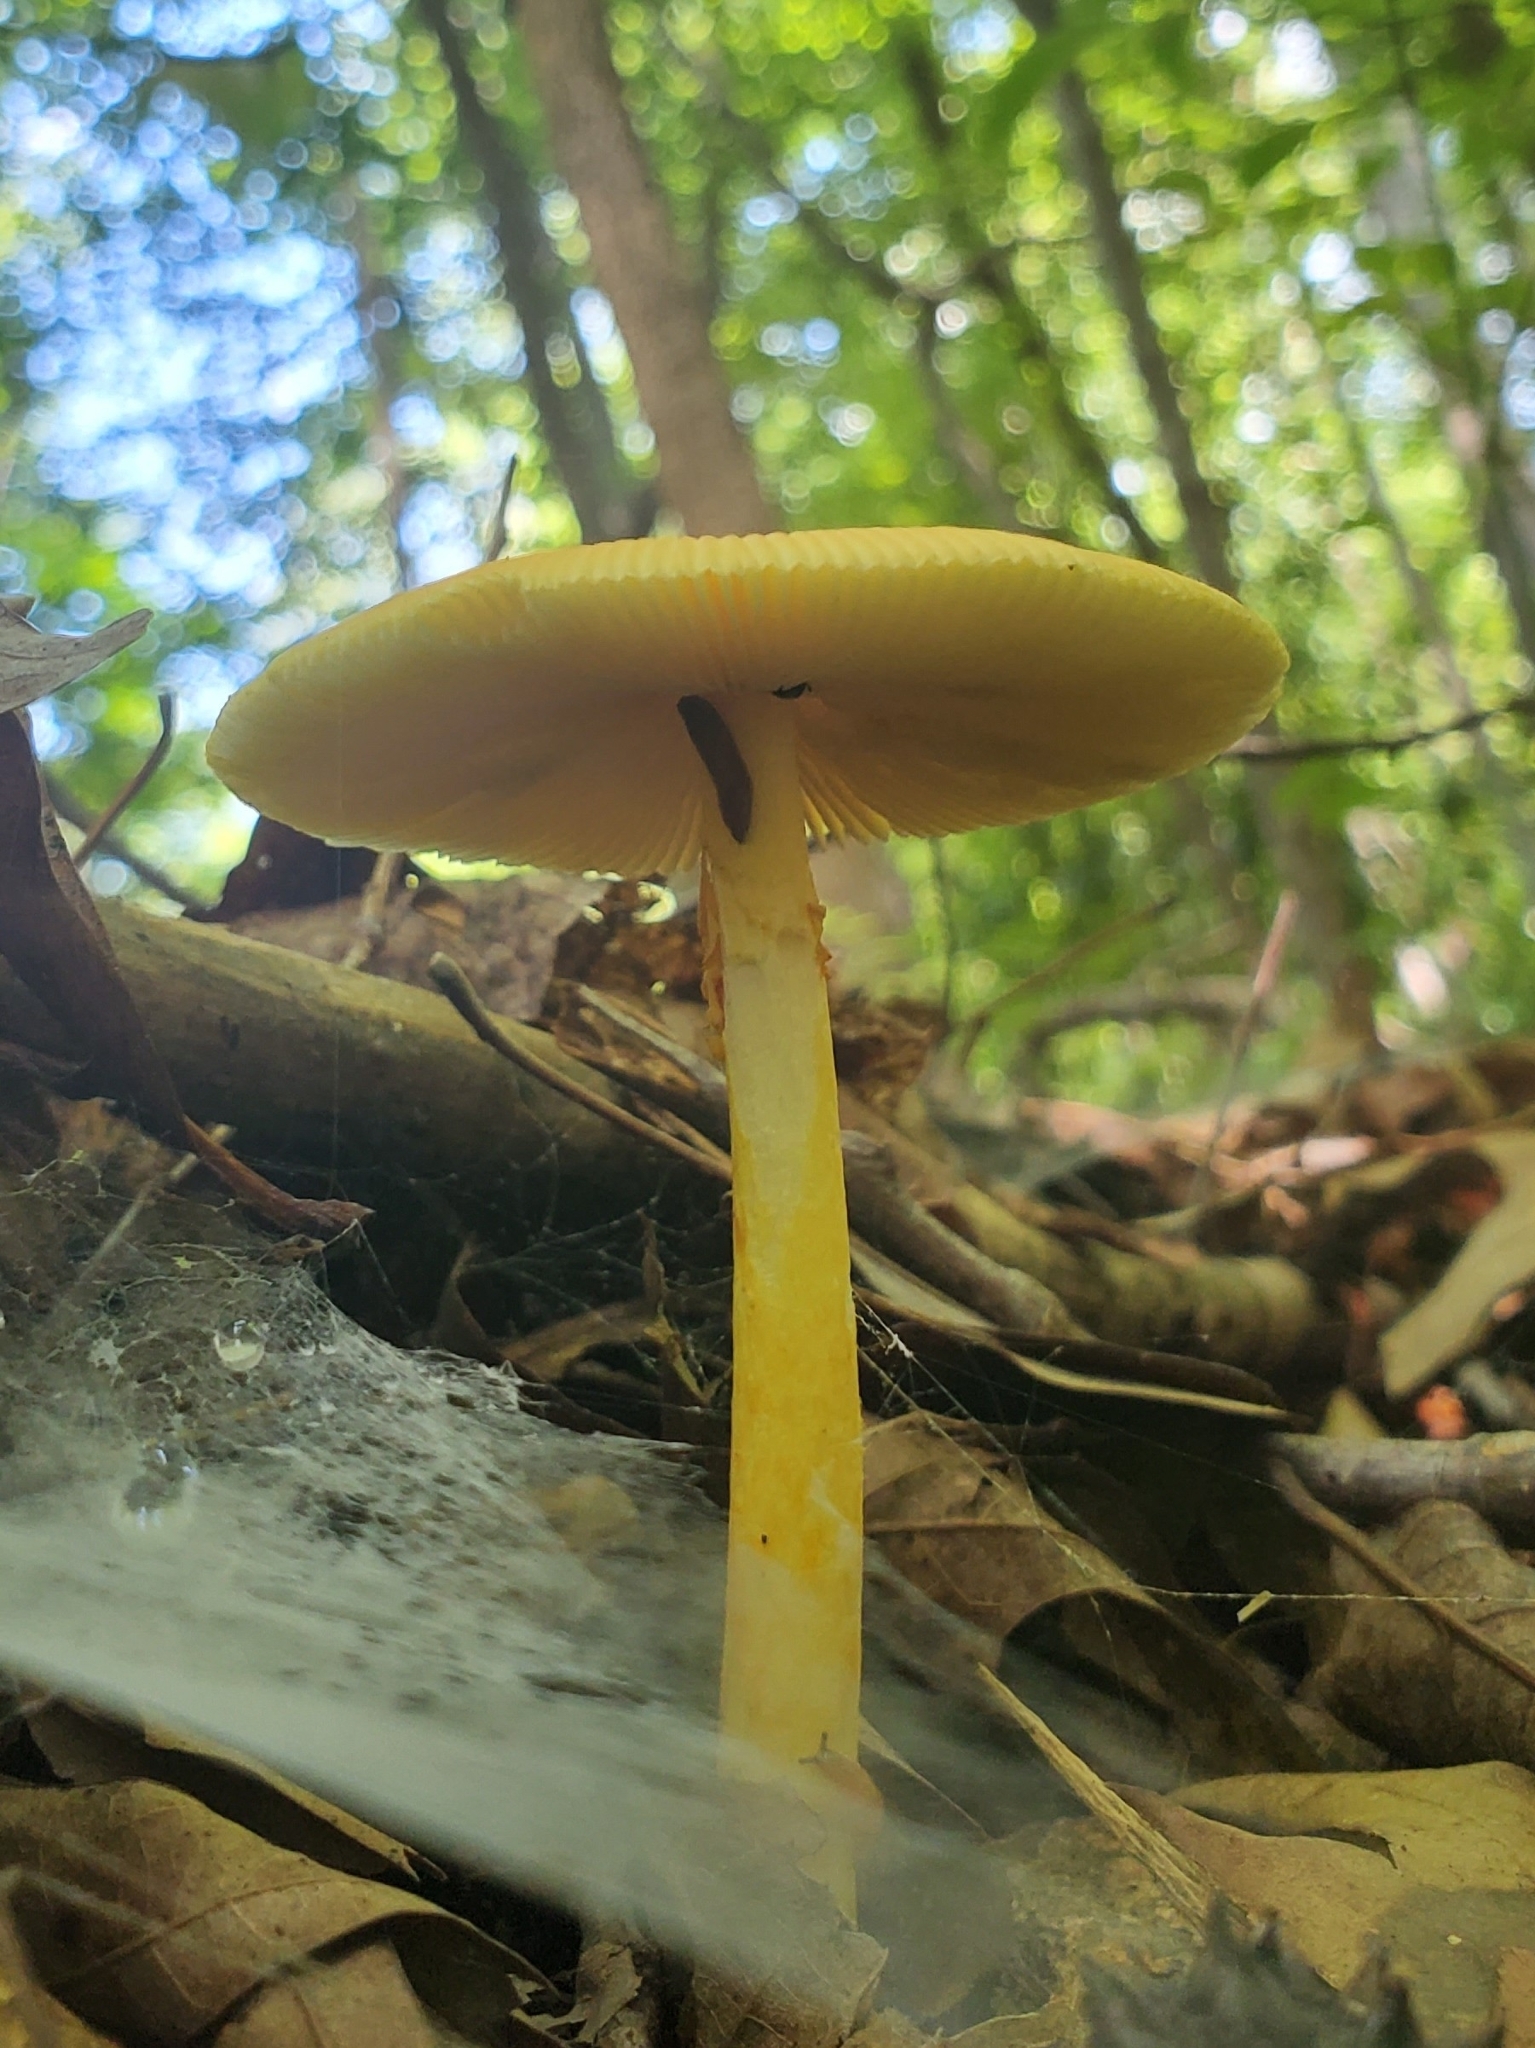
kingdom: Fungi
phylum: Basidiomycota
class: Agaricomycetes
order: Agaricales
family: Amanitaceae
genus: Amanita
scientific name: Amanita flavoconia
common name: Yellow patches
